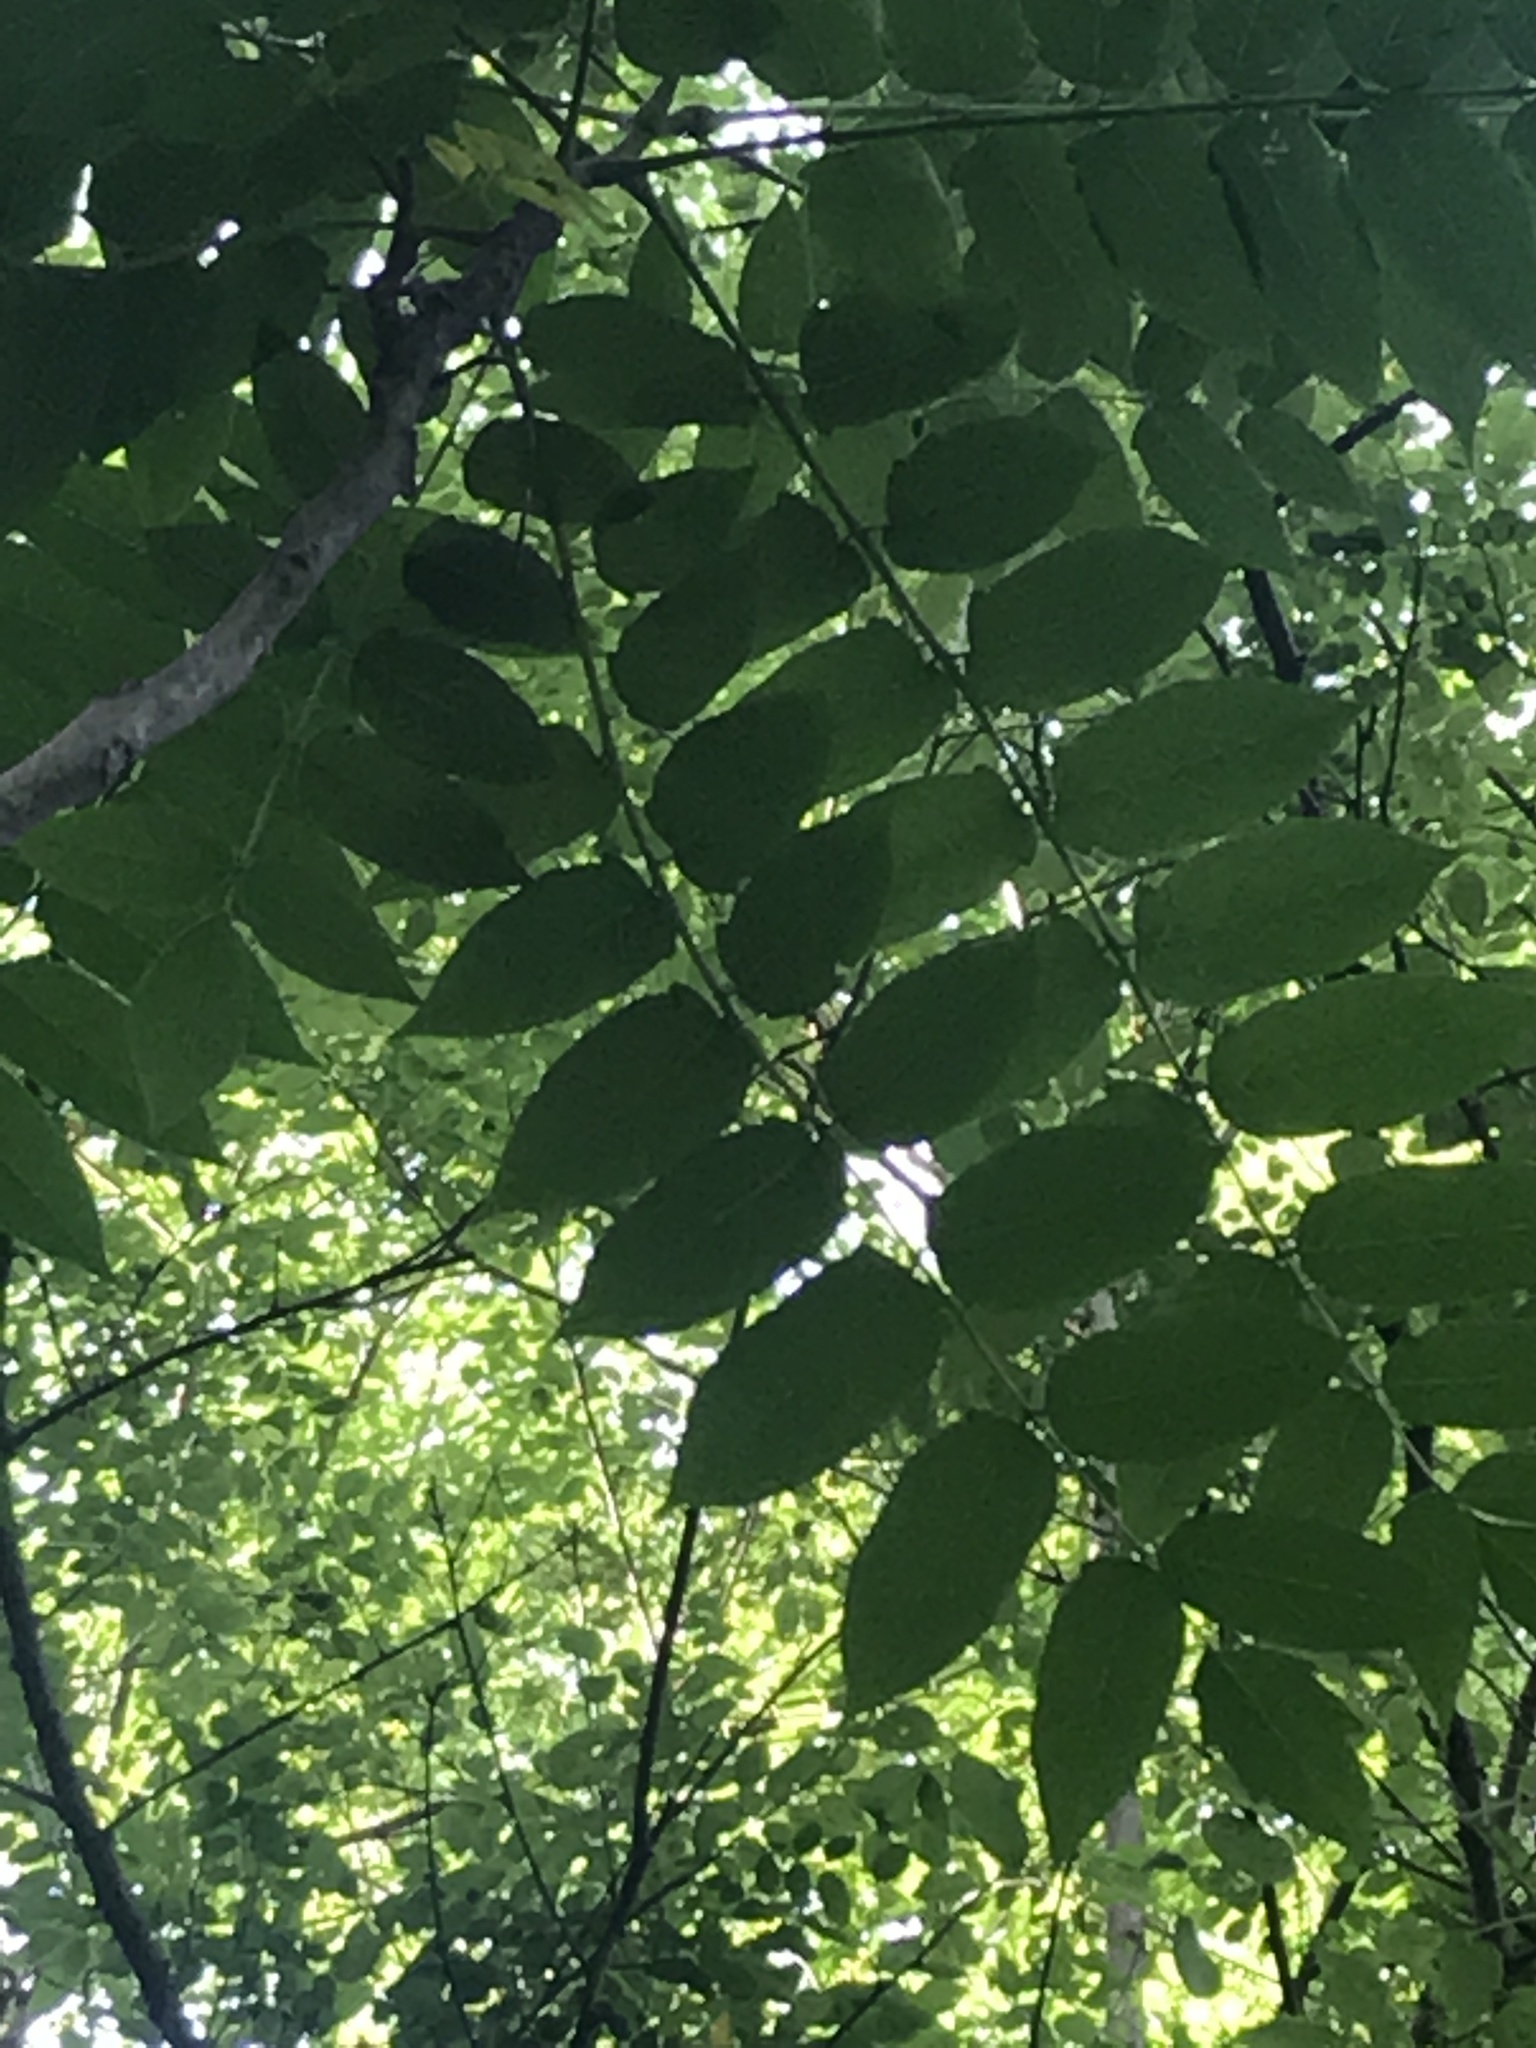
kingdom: Plantae
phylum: Tracheophyta
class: Magnoliopsida
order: Sapindales
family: Simaroubaceae
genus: Ailanthus
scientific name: Ailanthus altissima
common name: Tree-of-heaven
